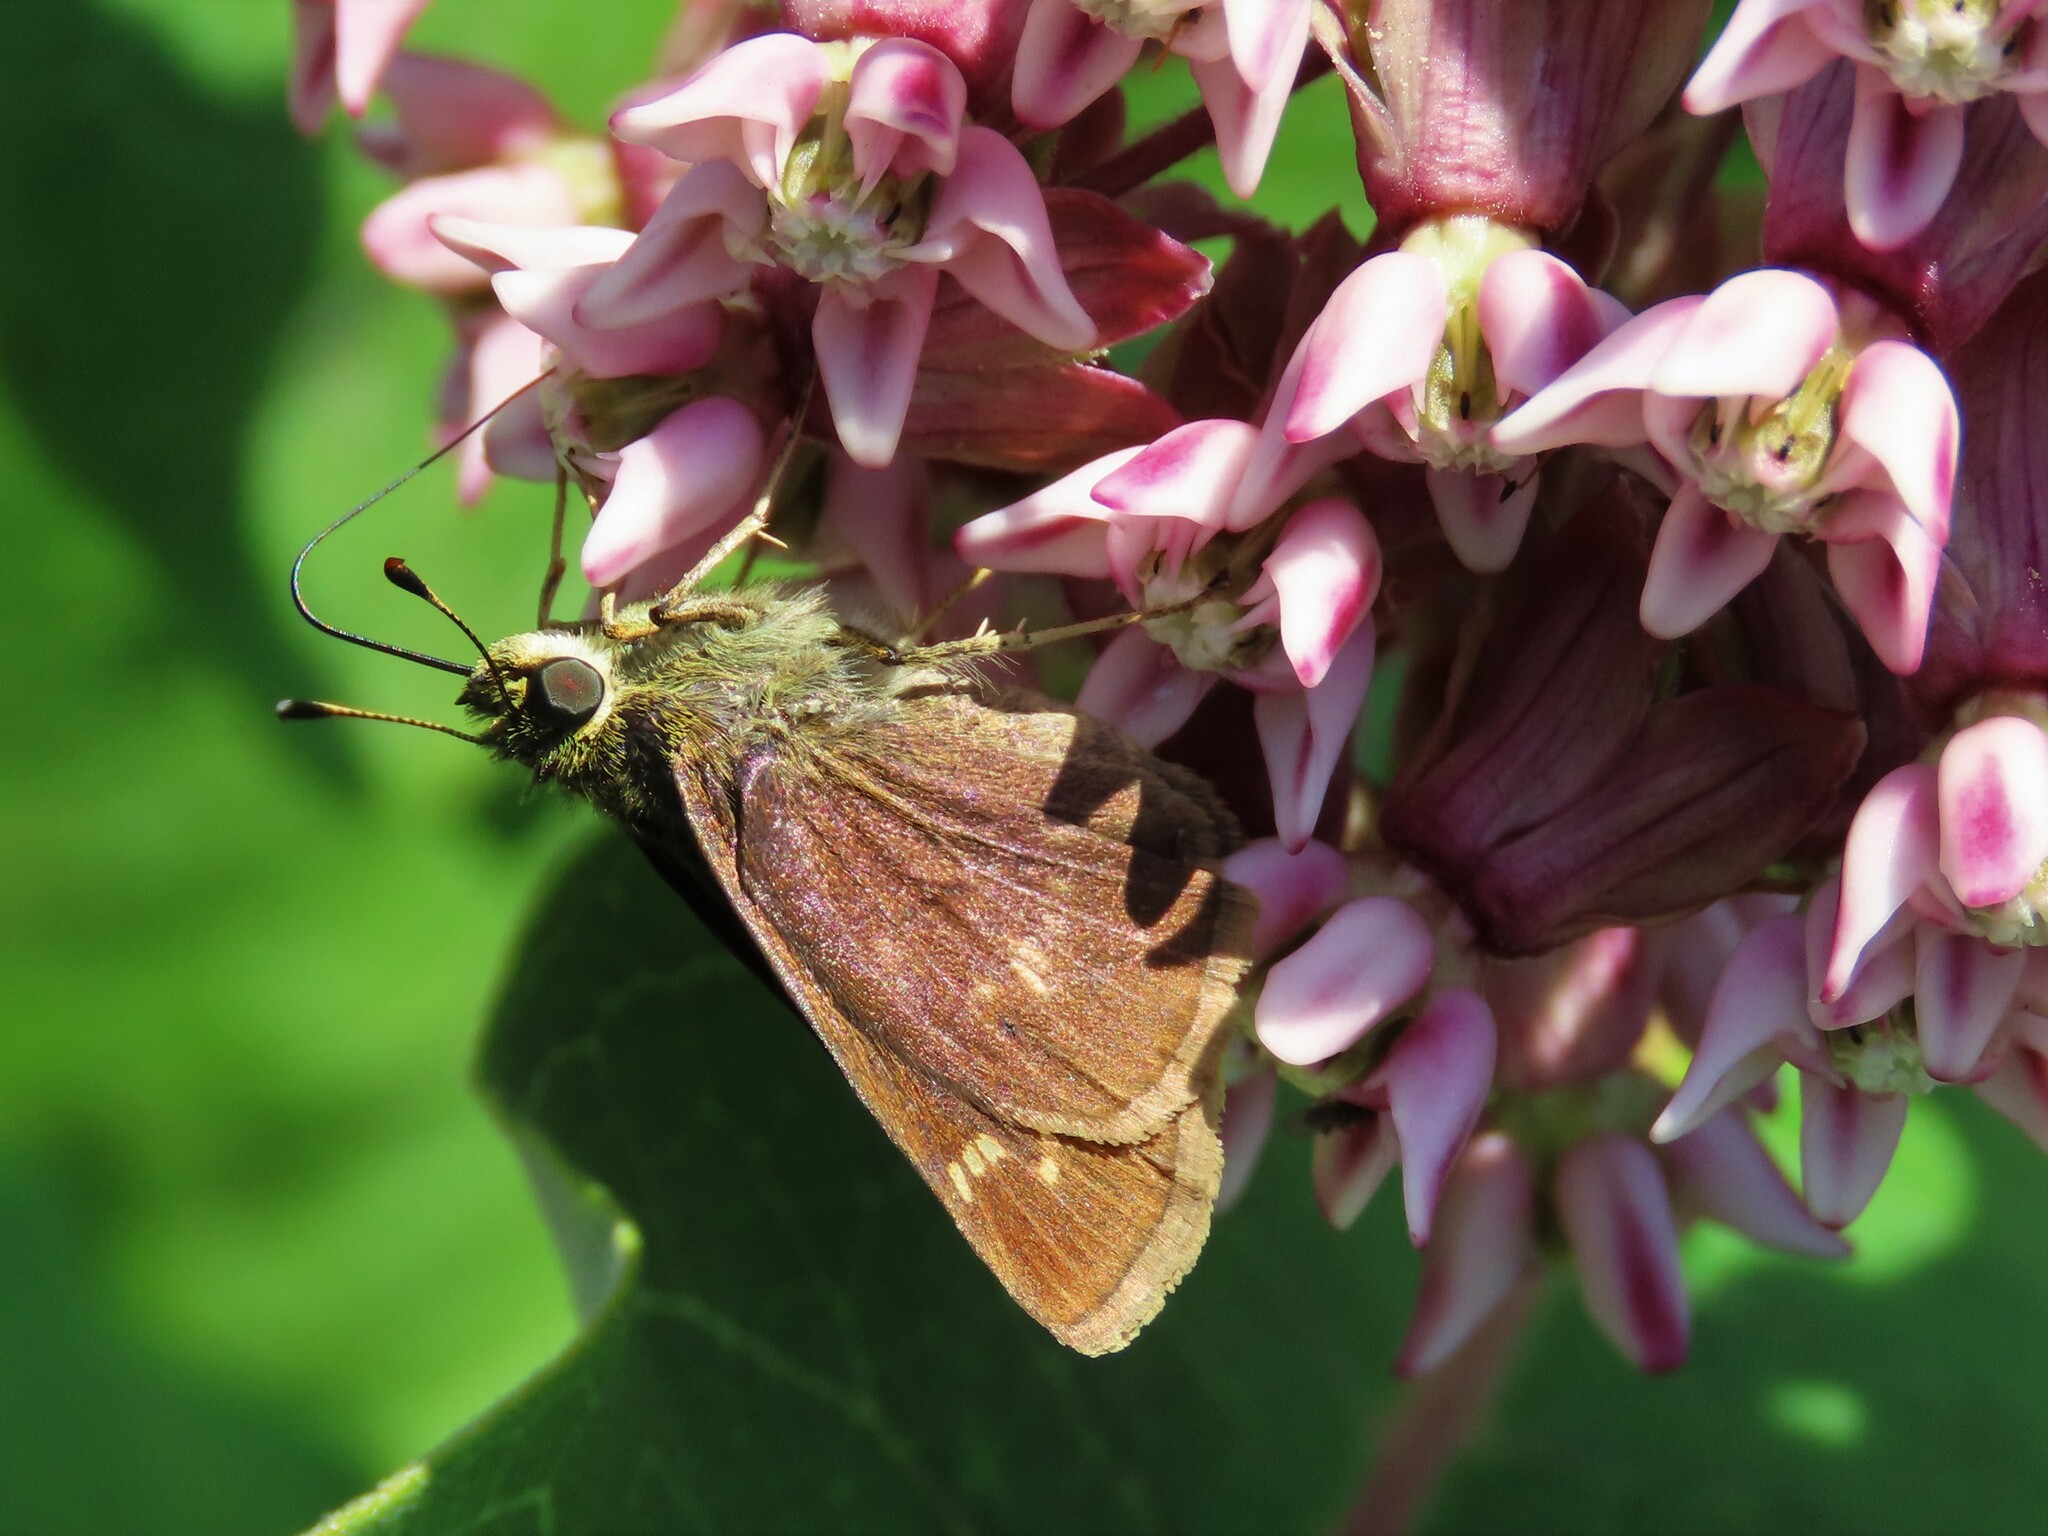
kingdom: Animalia
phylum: Arthropoda
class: Insecta
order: Lepidoptera
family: Hesperiidae
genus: Vernia
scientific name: Vernia verna
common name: Little glassywing
